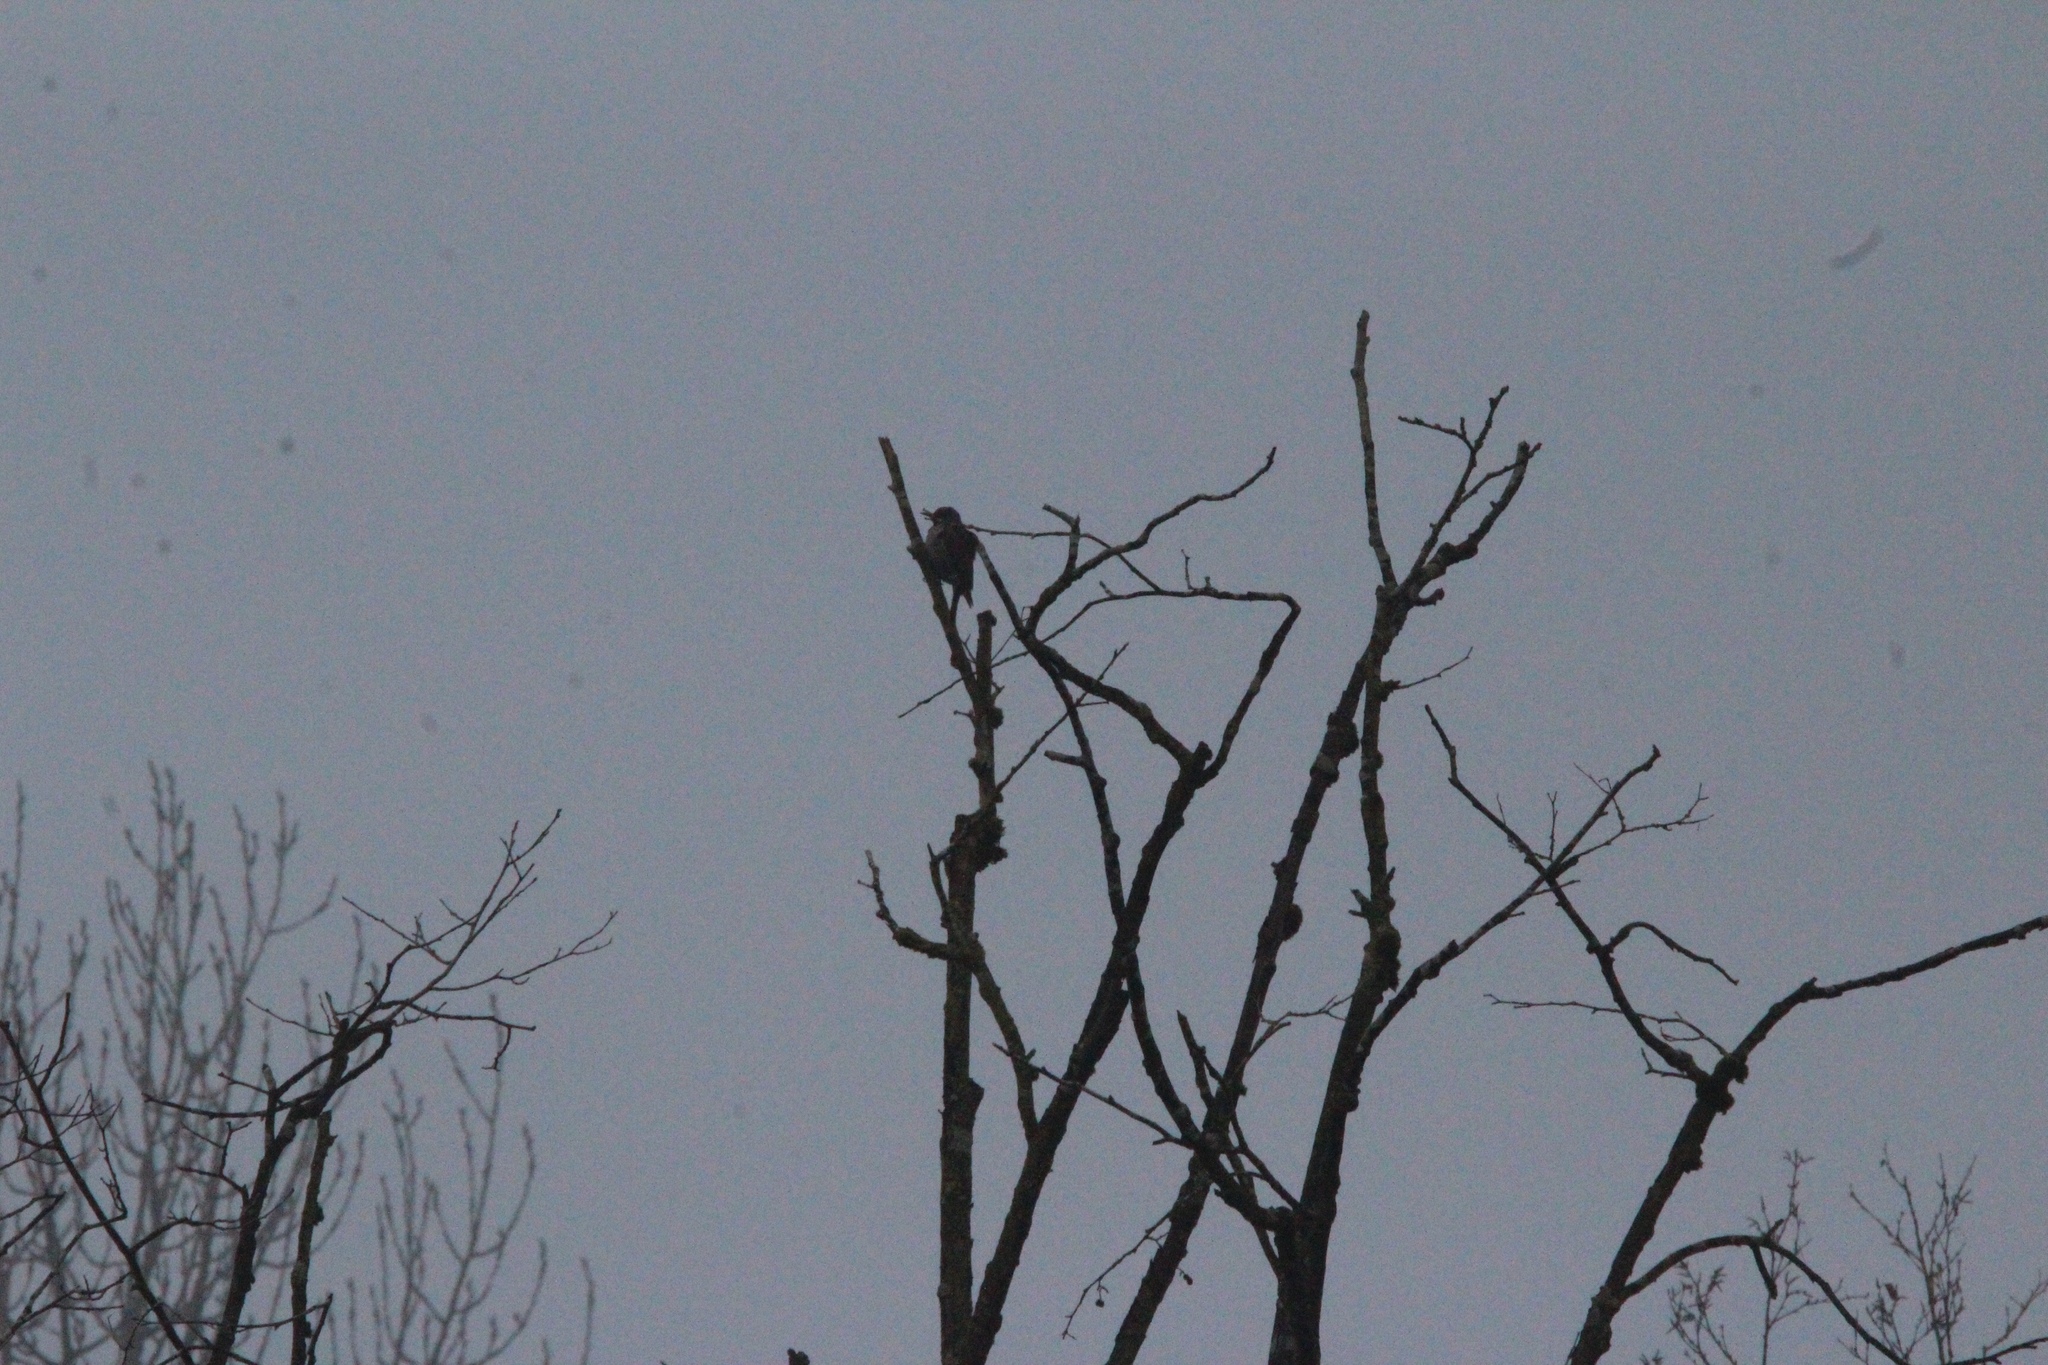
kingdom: Animalia
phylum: Chordata
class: Aves
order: Piciformes
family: Picidae
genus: Colaptes
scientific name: Colaptes auratus
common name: Northern flicker
